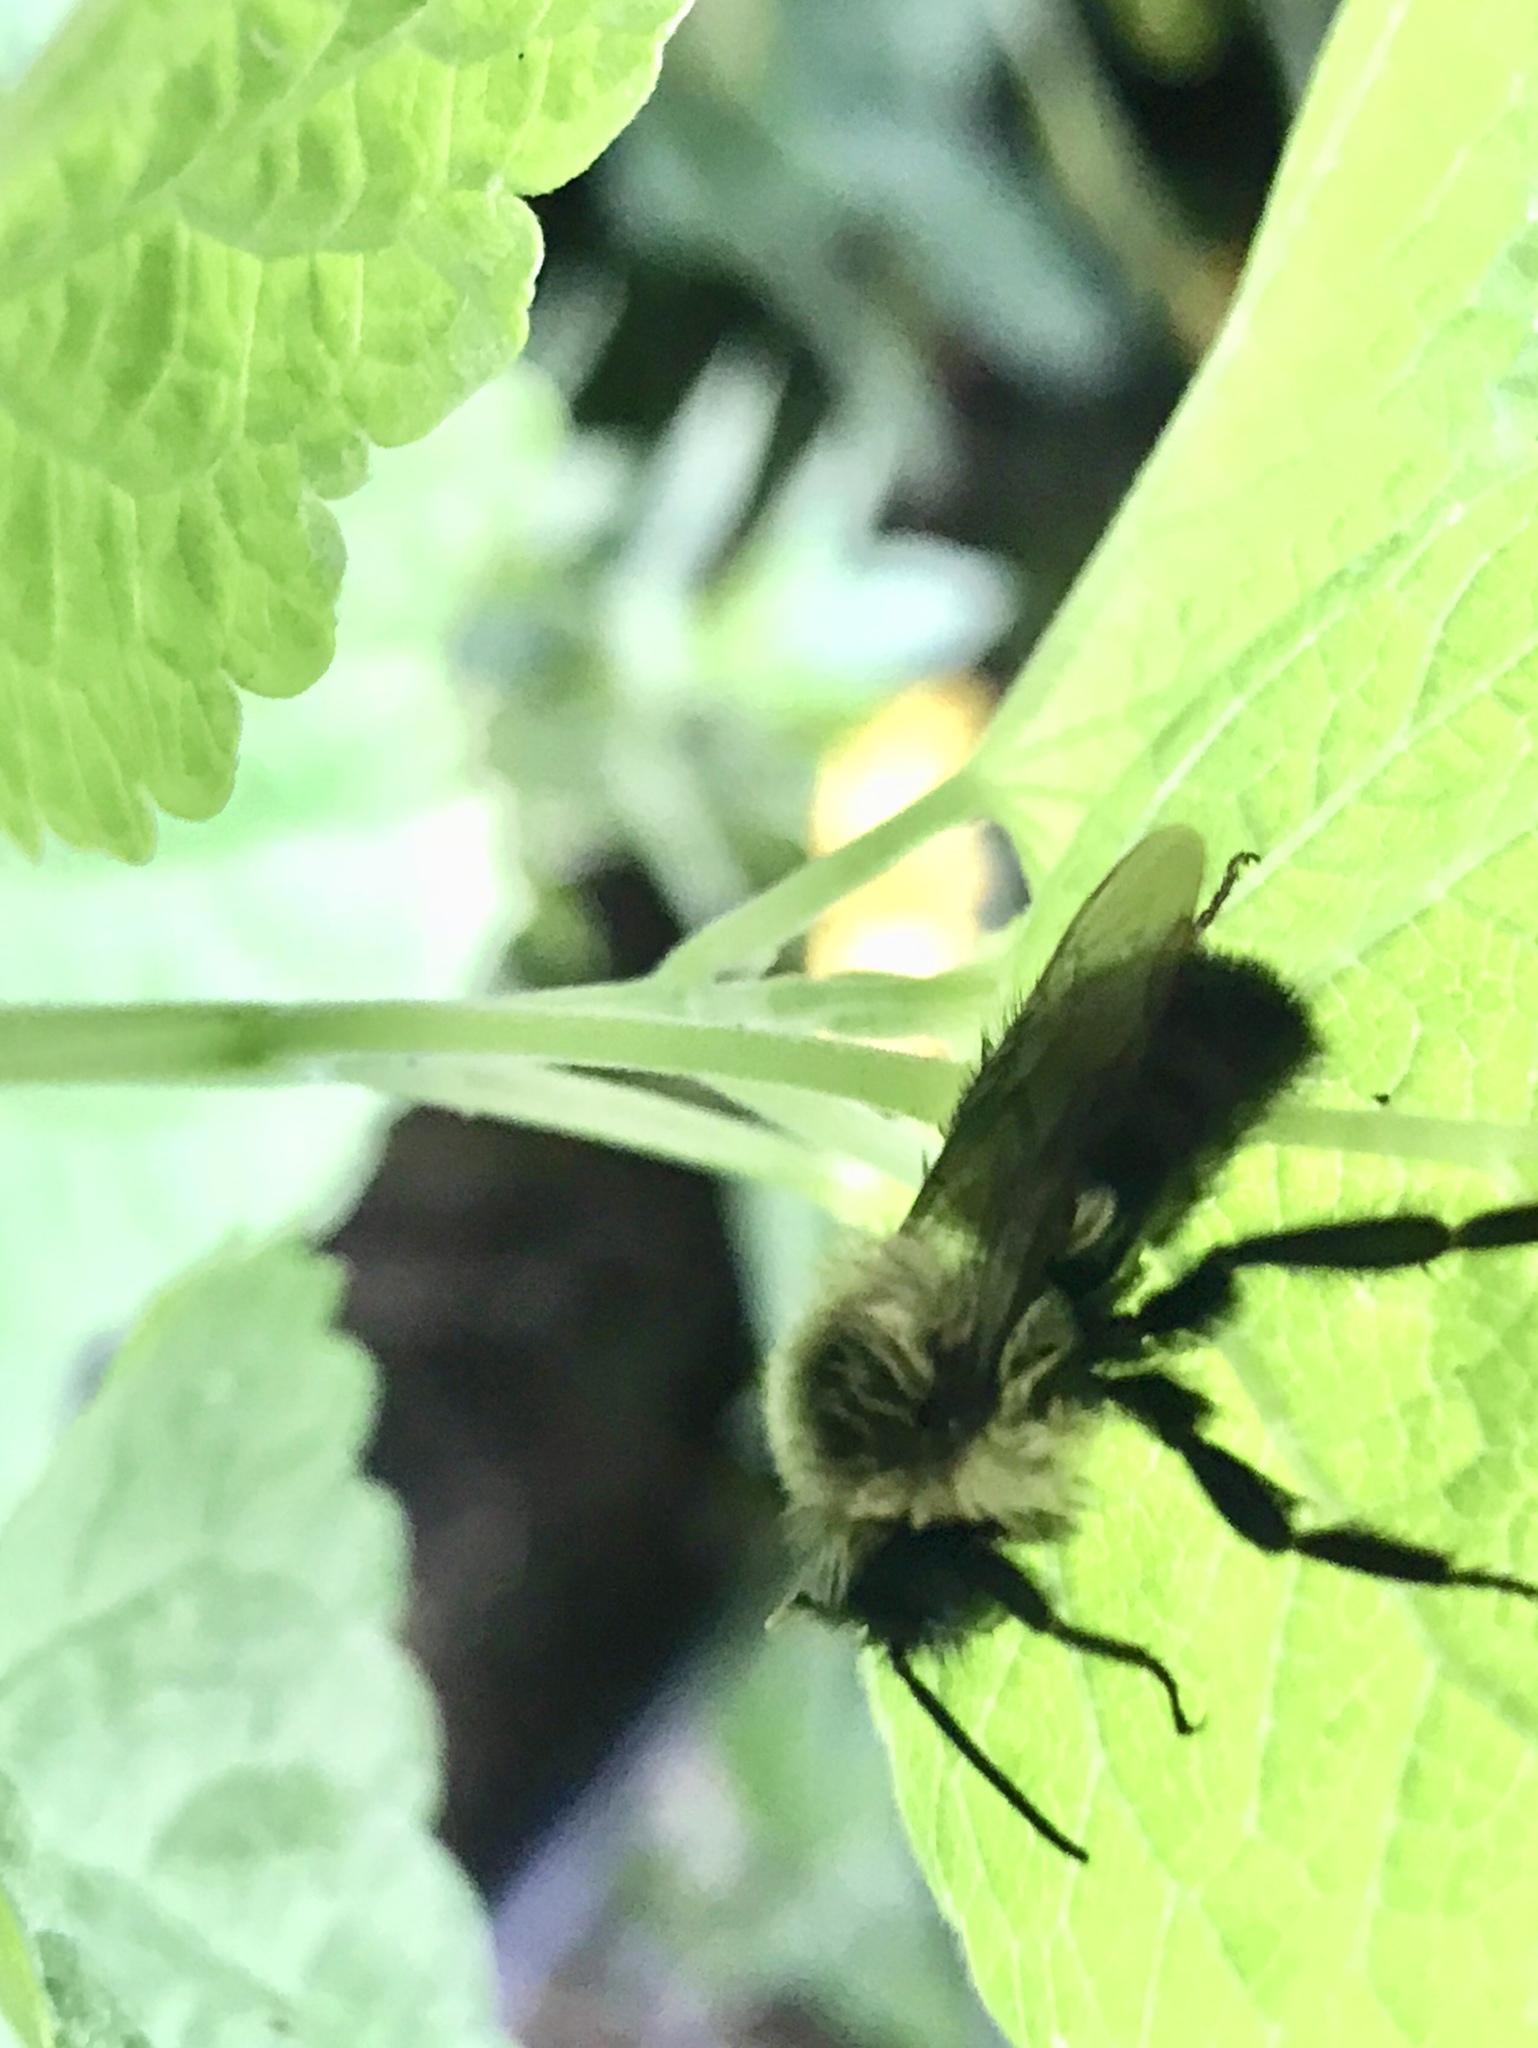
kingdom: Animalia
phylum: Arthropoda
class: Insecta
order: Hymenoptera
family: Apidae
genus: Bombus
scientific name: Bombus impatiens
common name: Common eastern bumble bee
